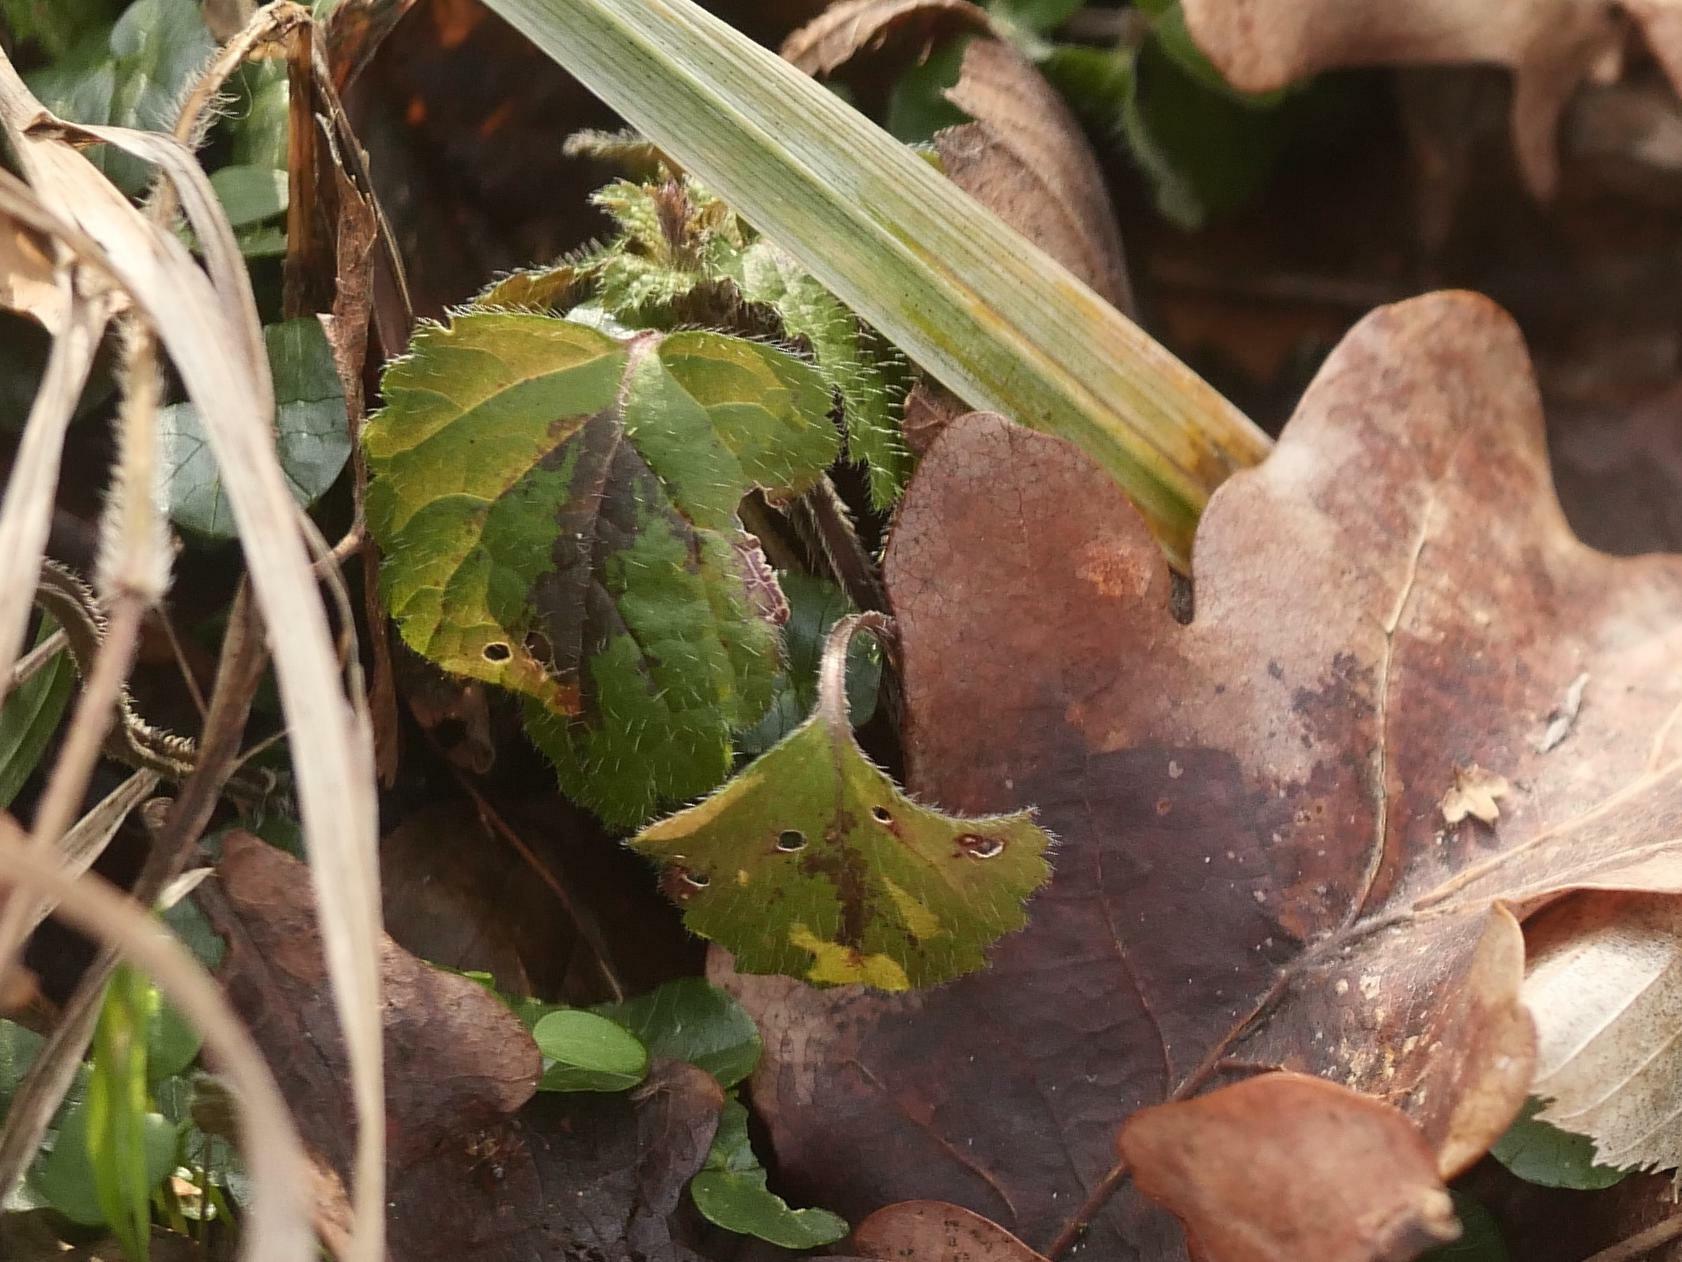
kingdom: Plantae
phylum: Tracheophyta
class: Magnoliopsida
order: Lamiales
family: Lamiaceae
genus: Lamium
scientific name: Lamium galeobdolon
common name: Yellow archangel
